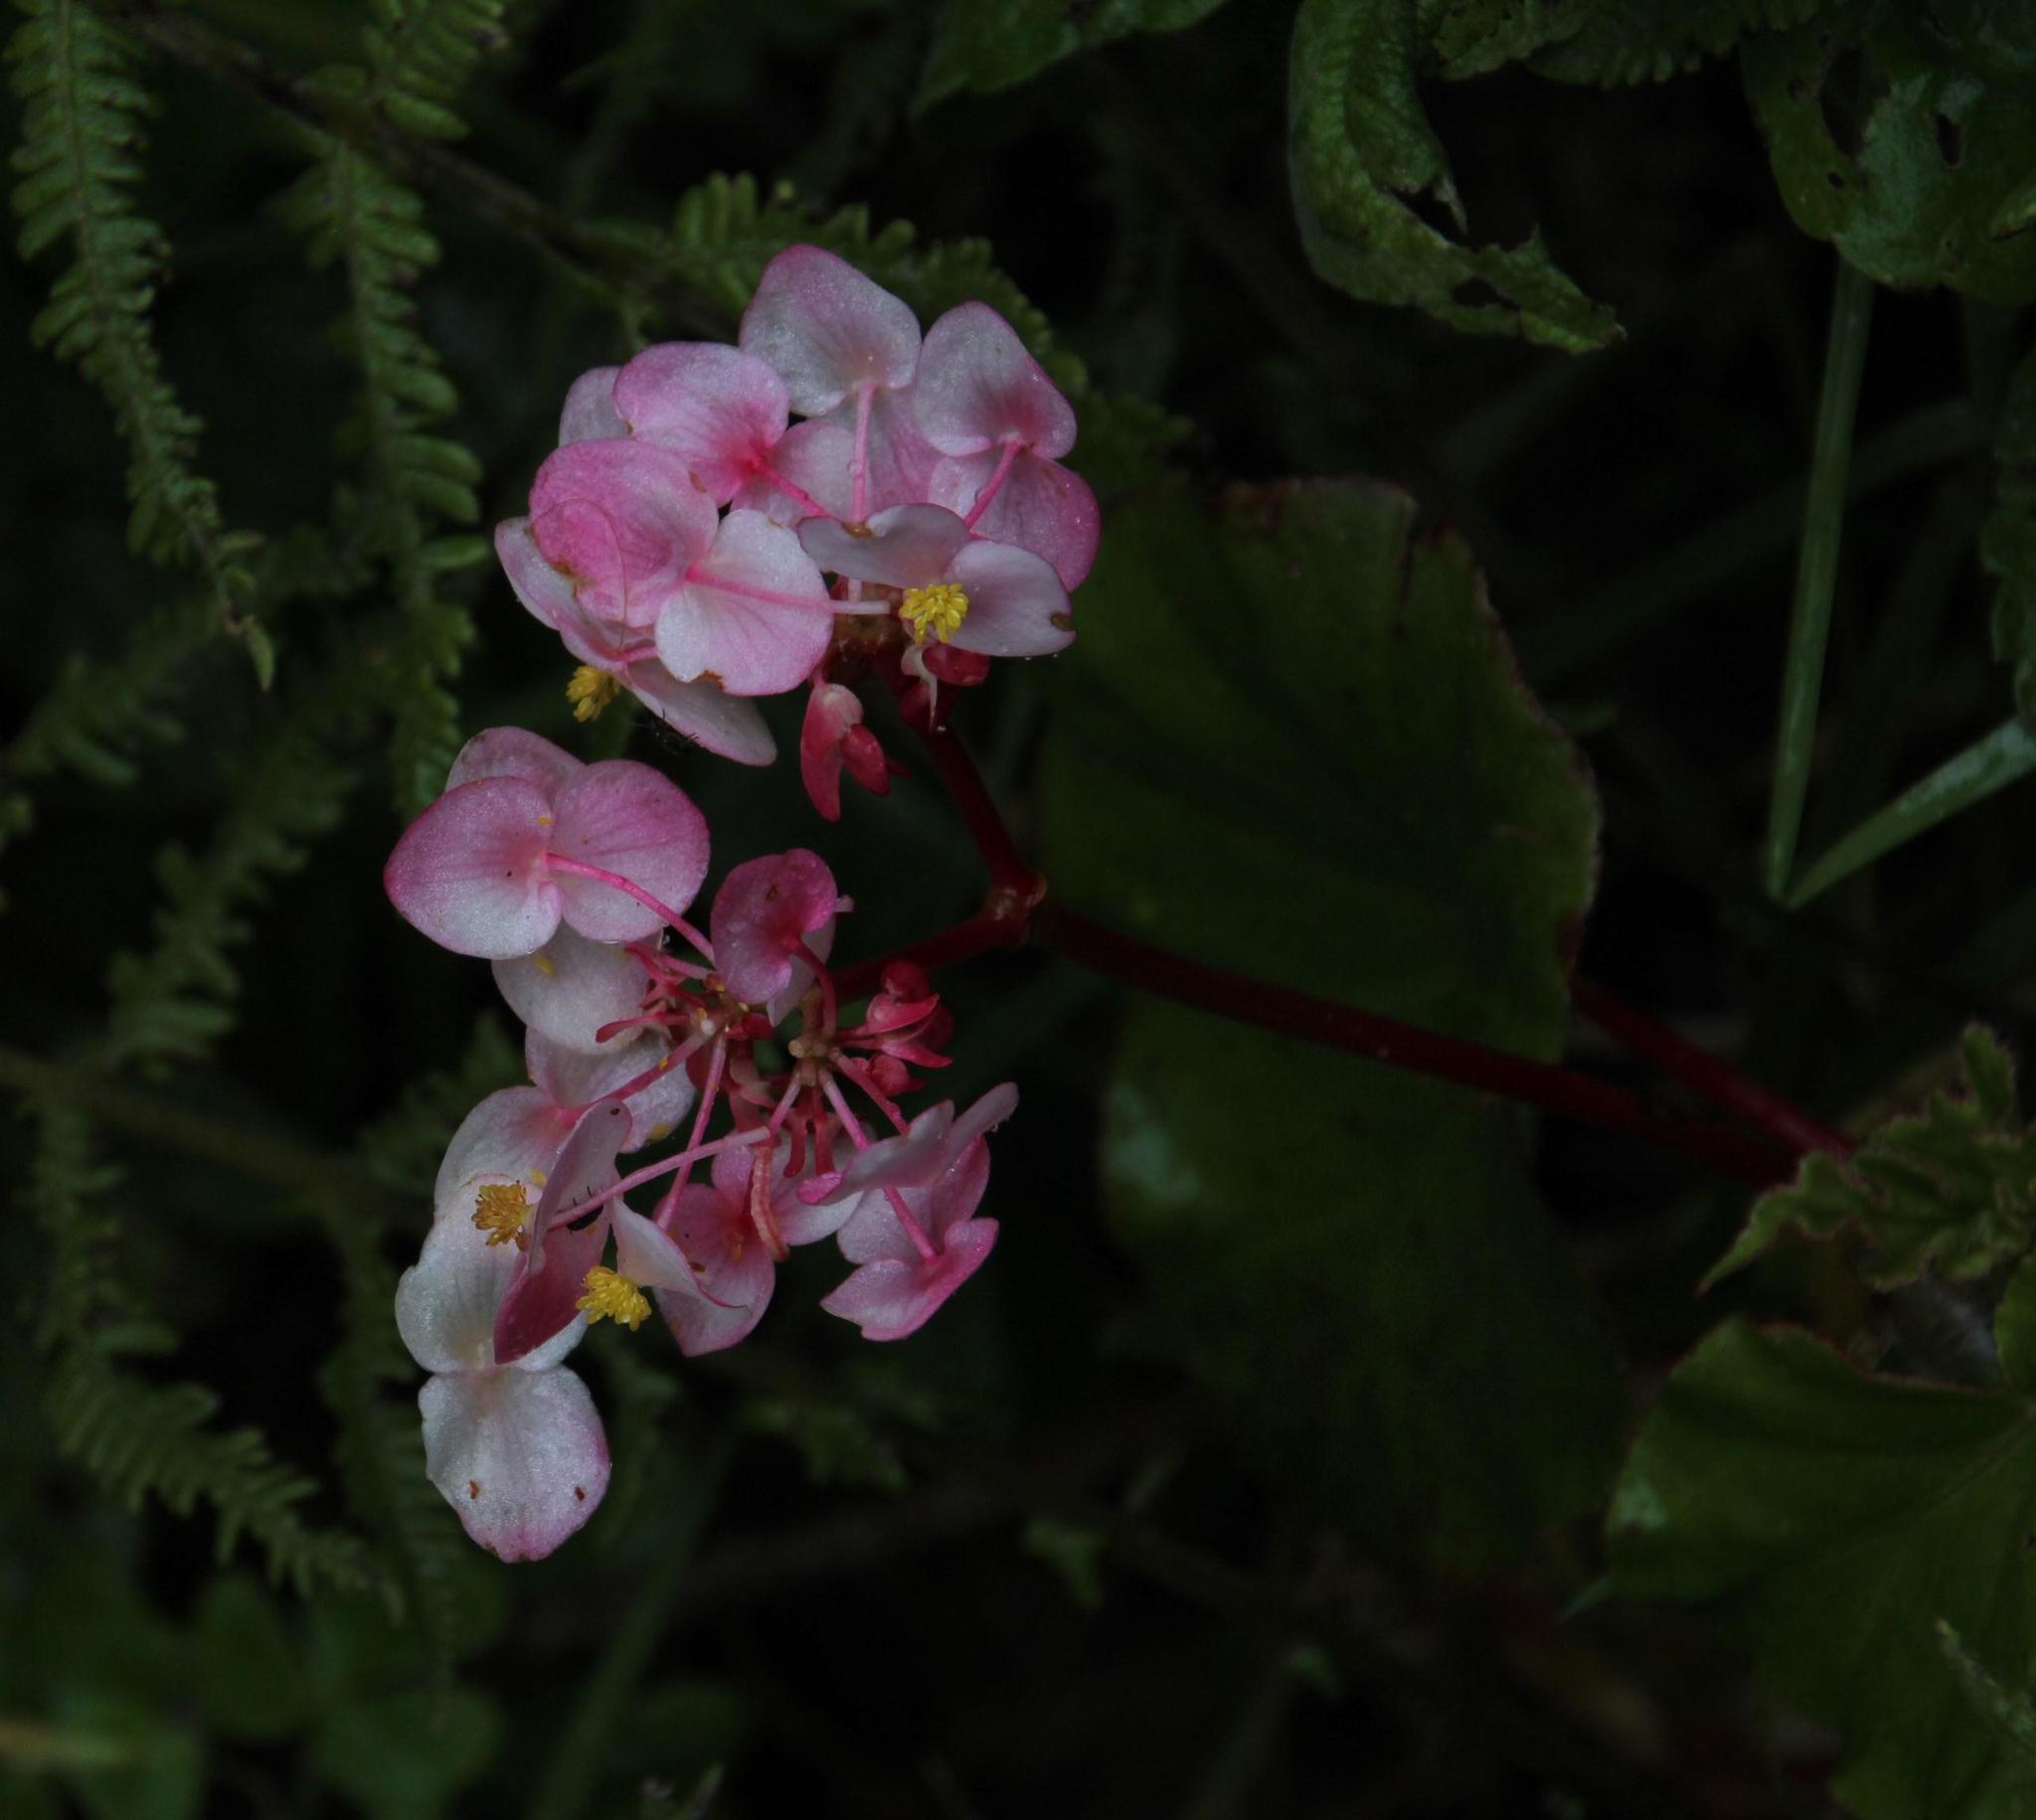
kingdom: Plantae
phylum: Tracheophyta
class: Magnoliopsida
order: Cucurbitales
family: Begoniaceae
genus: Begonia
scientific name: Begonia bracteosa
